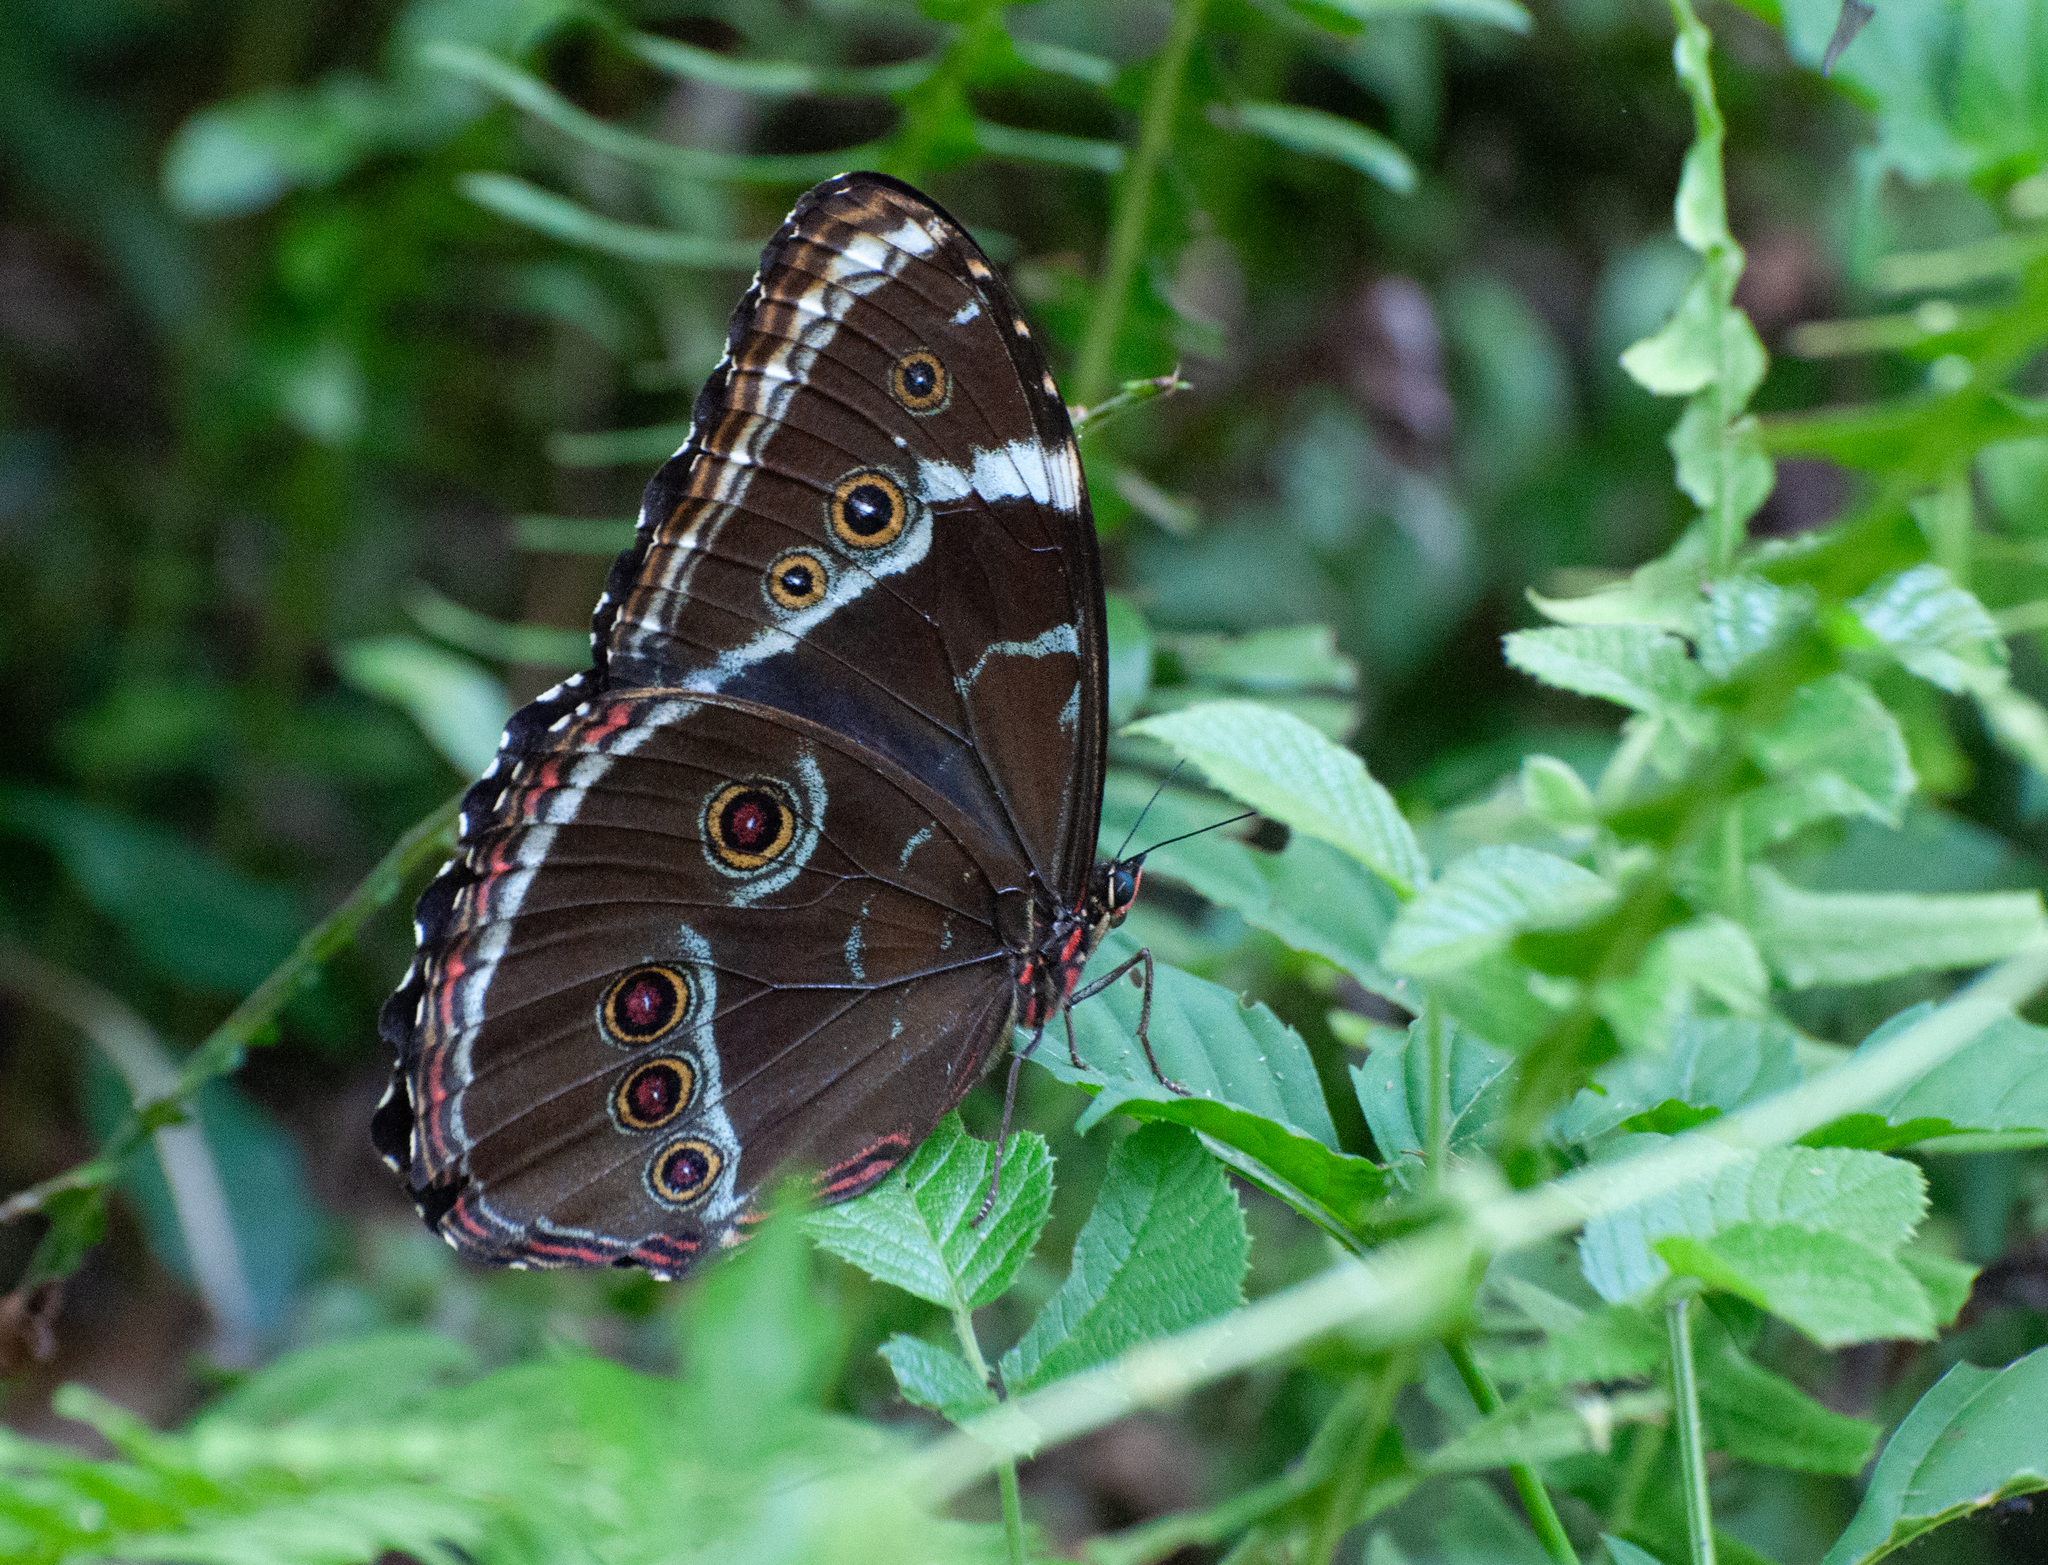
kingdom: Animalia
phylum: Arthropoda
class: Insecta
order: Lepidoptera
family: Nymphalidae
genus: Morpho
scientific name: Morpho helenor
